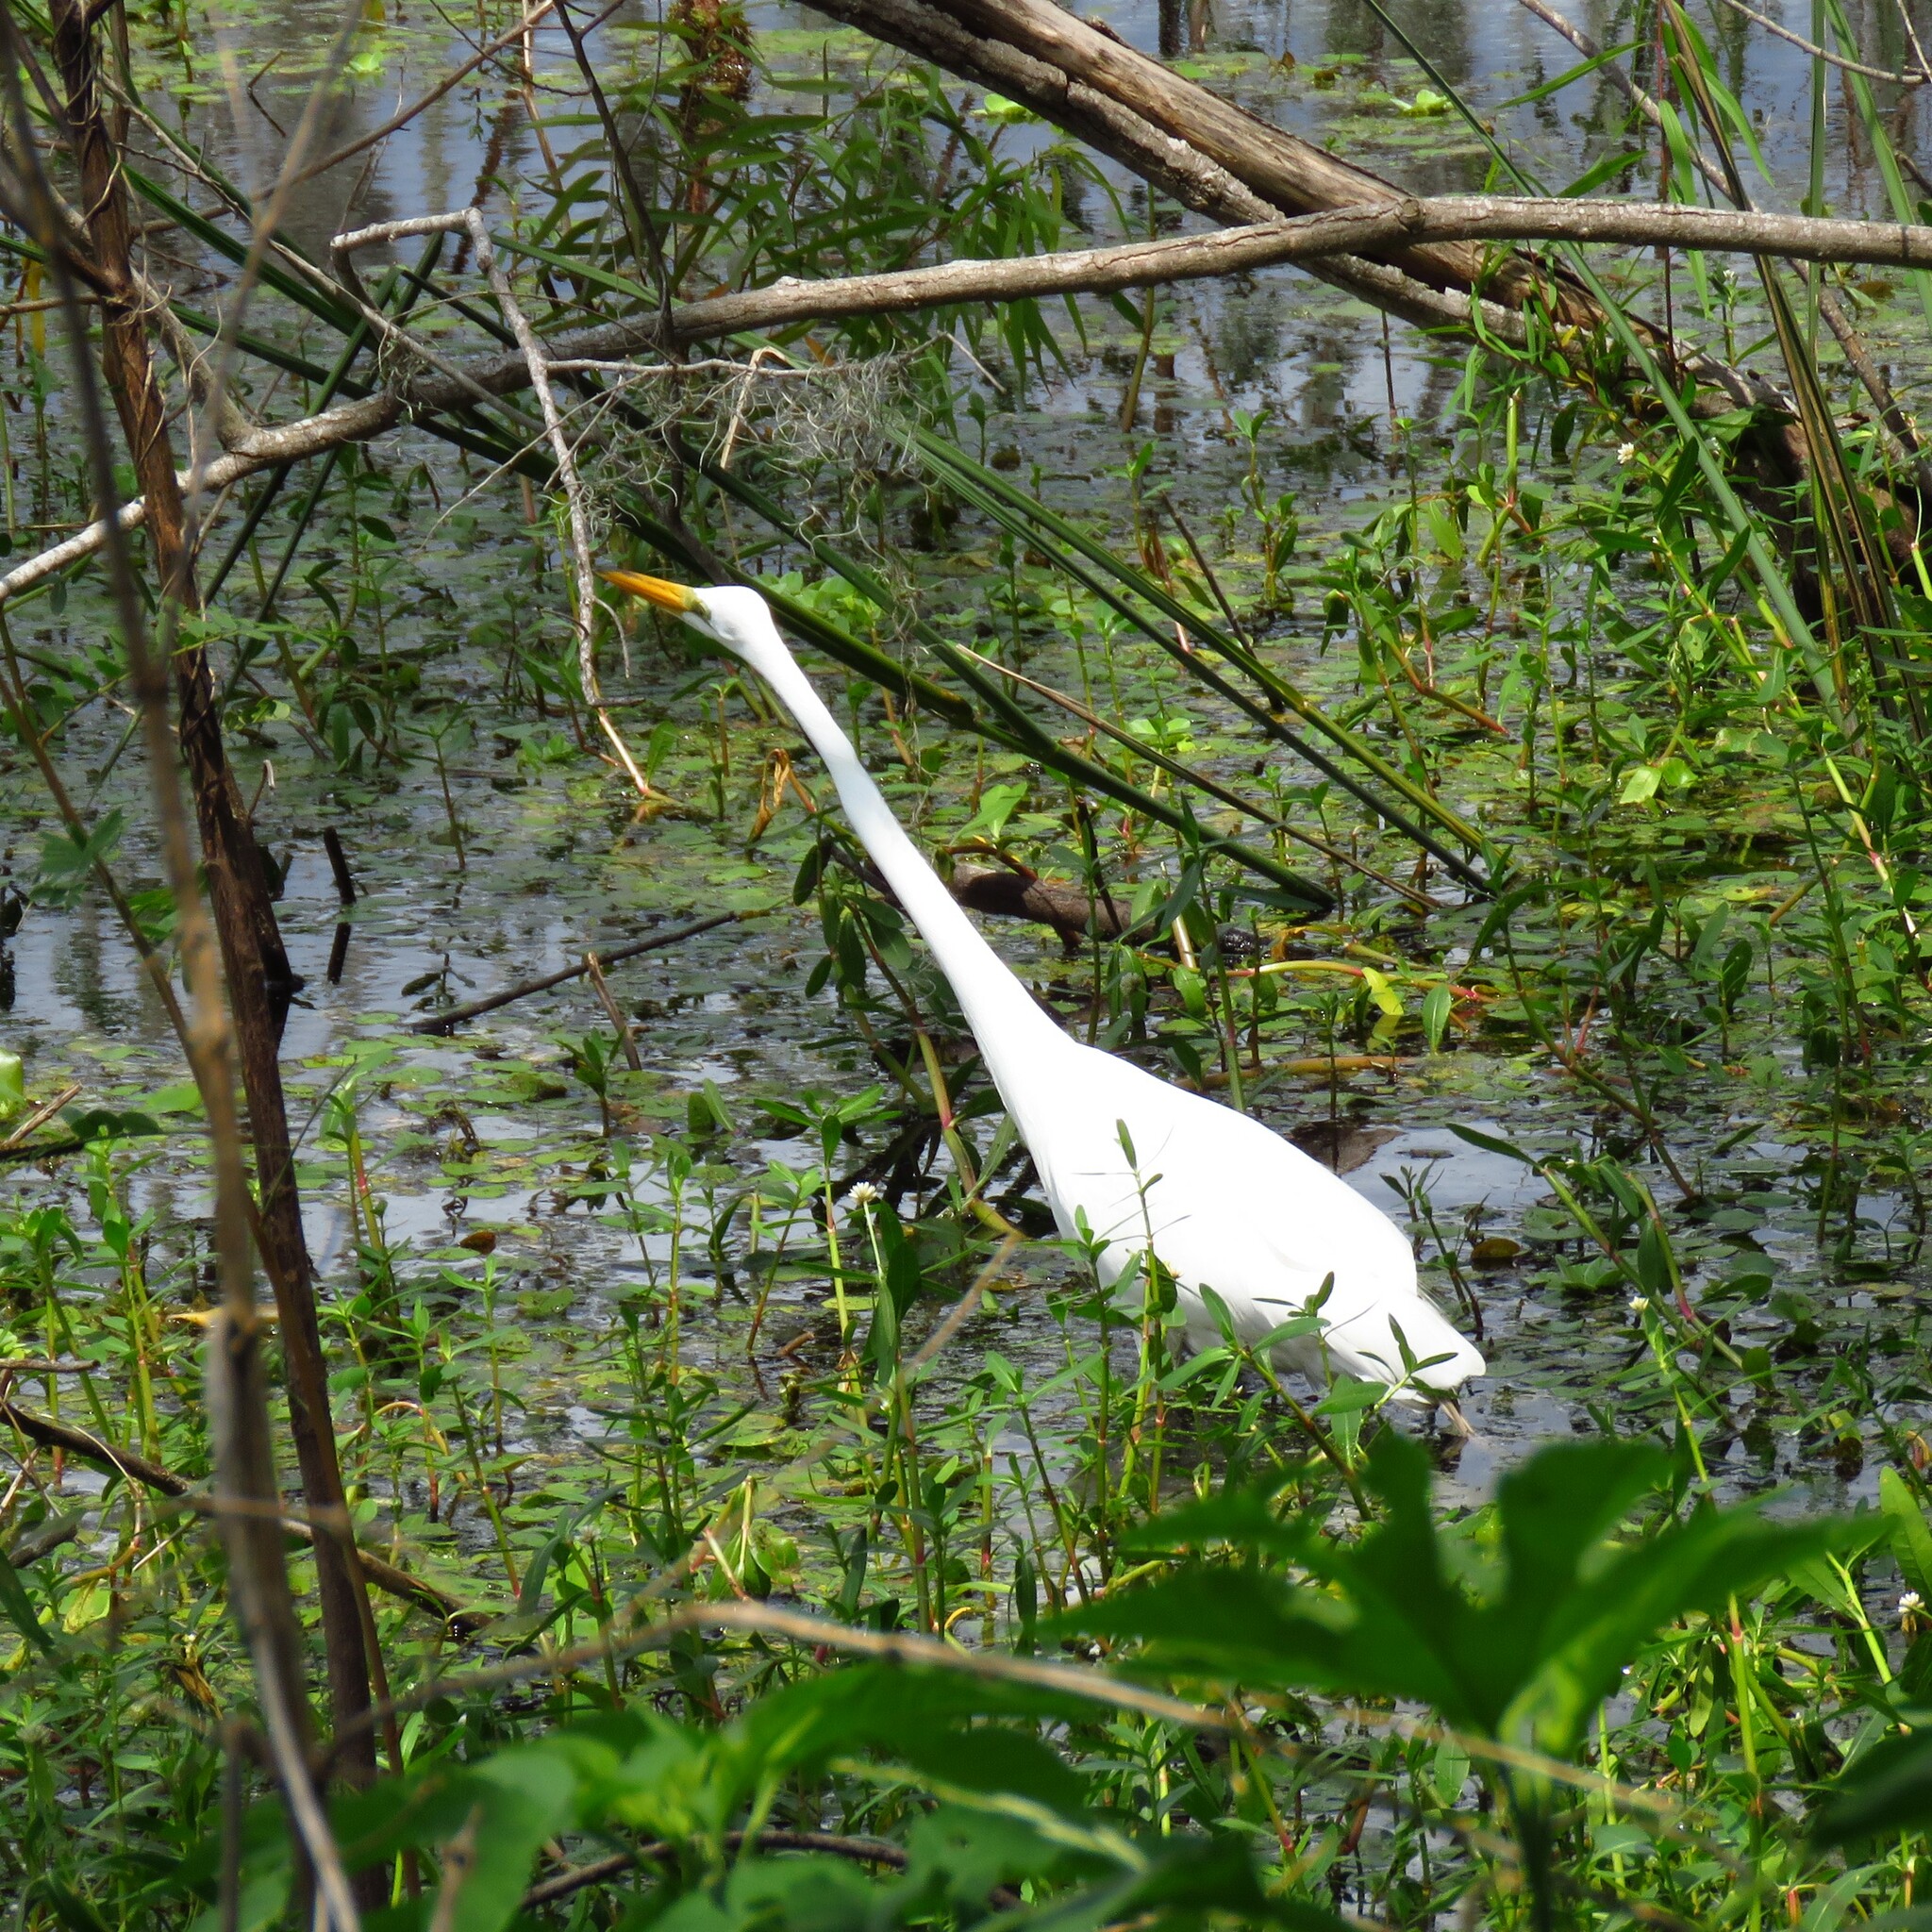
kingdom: Animalia
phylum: Chordata
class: Aves
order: Pelecaniformes
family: Ardeidae
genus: Ardea
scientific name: Ardea alba
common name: Great egret
